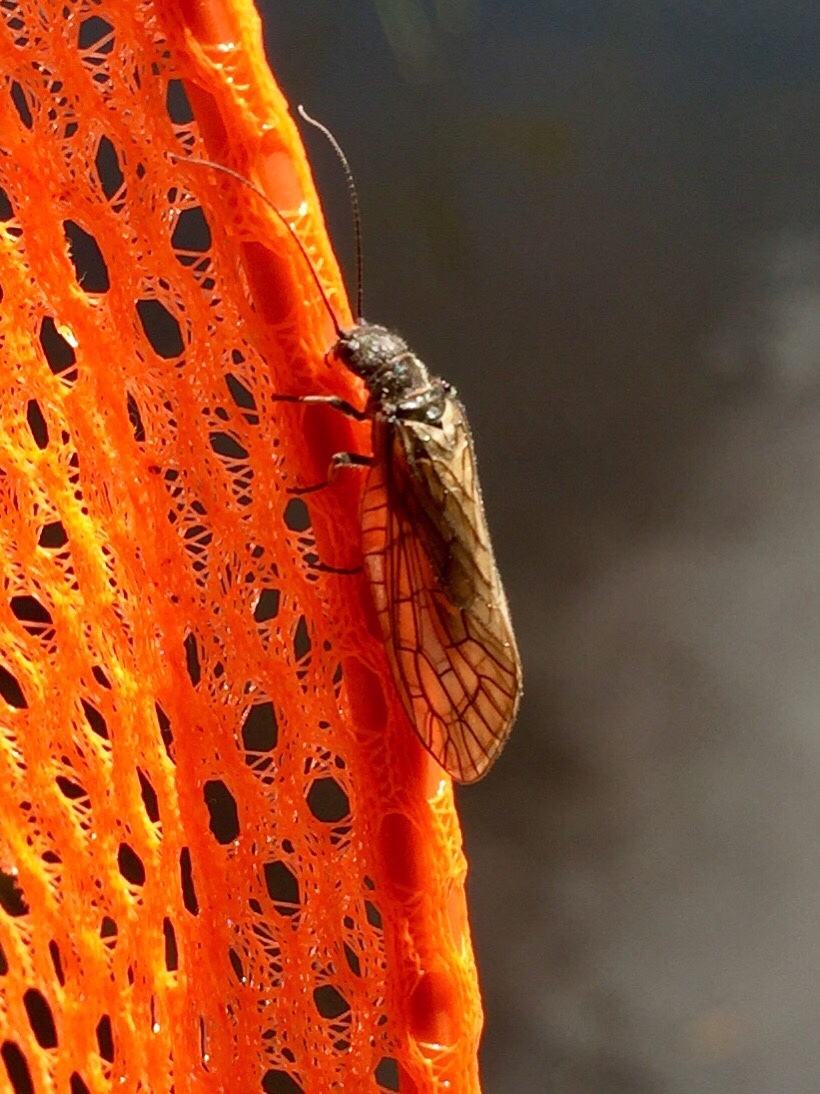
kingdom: Animalia
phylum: Arthropoda
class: Insecta
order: Megaloptera
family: Sialidae
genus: Sialis
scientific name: Sialis
